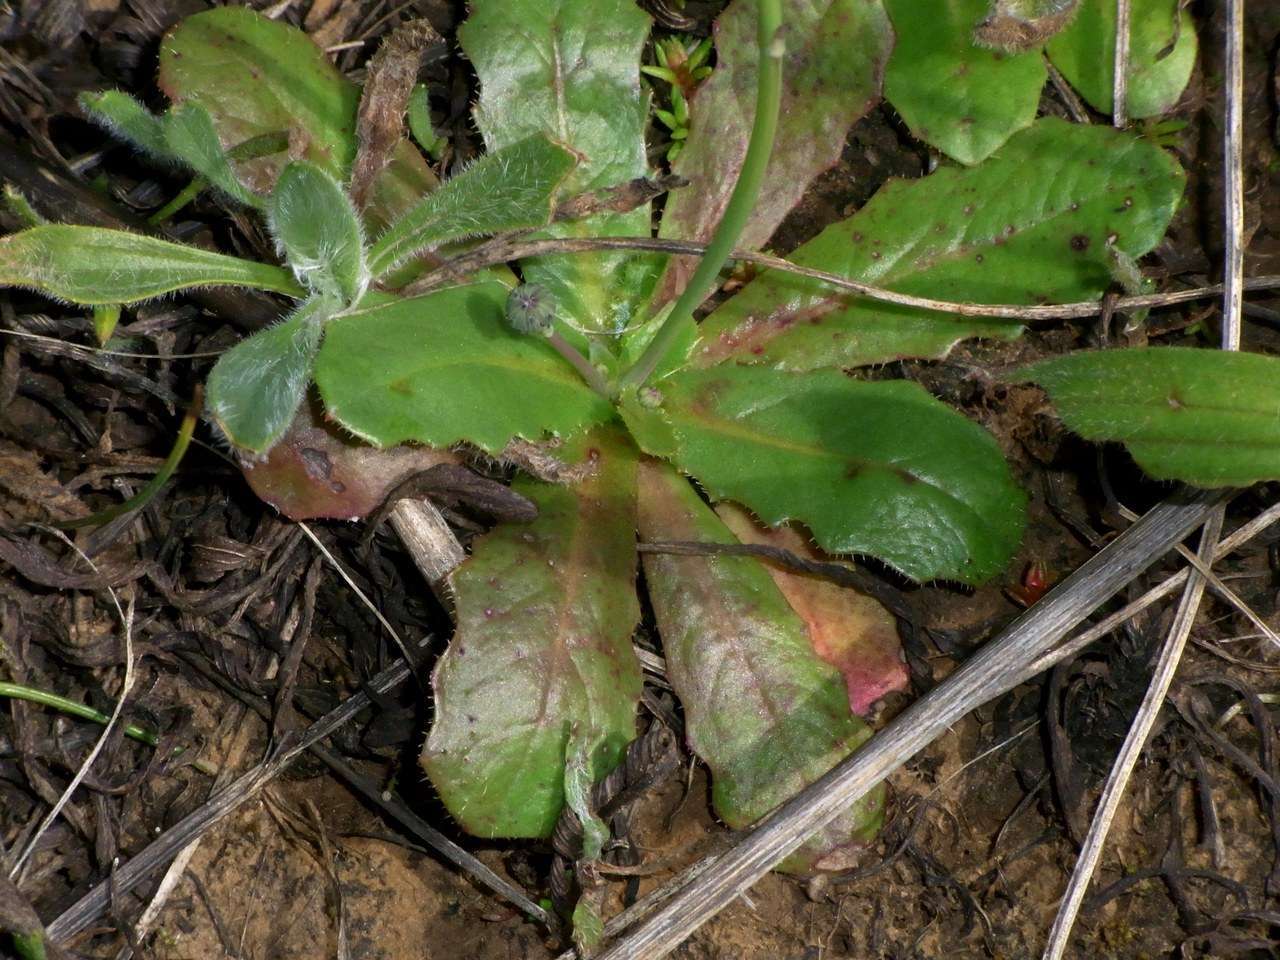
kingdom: Plantae
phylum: Tracheophyta
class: Magnoliopsida
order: Asterales
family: Asteraceae
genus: Hypochaeris
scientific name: Hypochaeris glabra
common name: Smooth catsear
